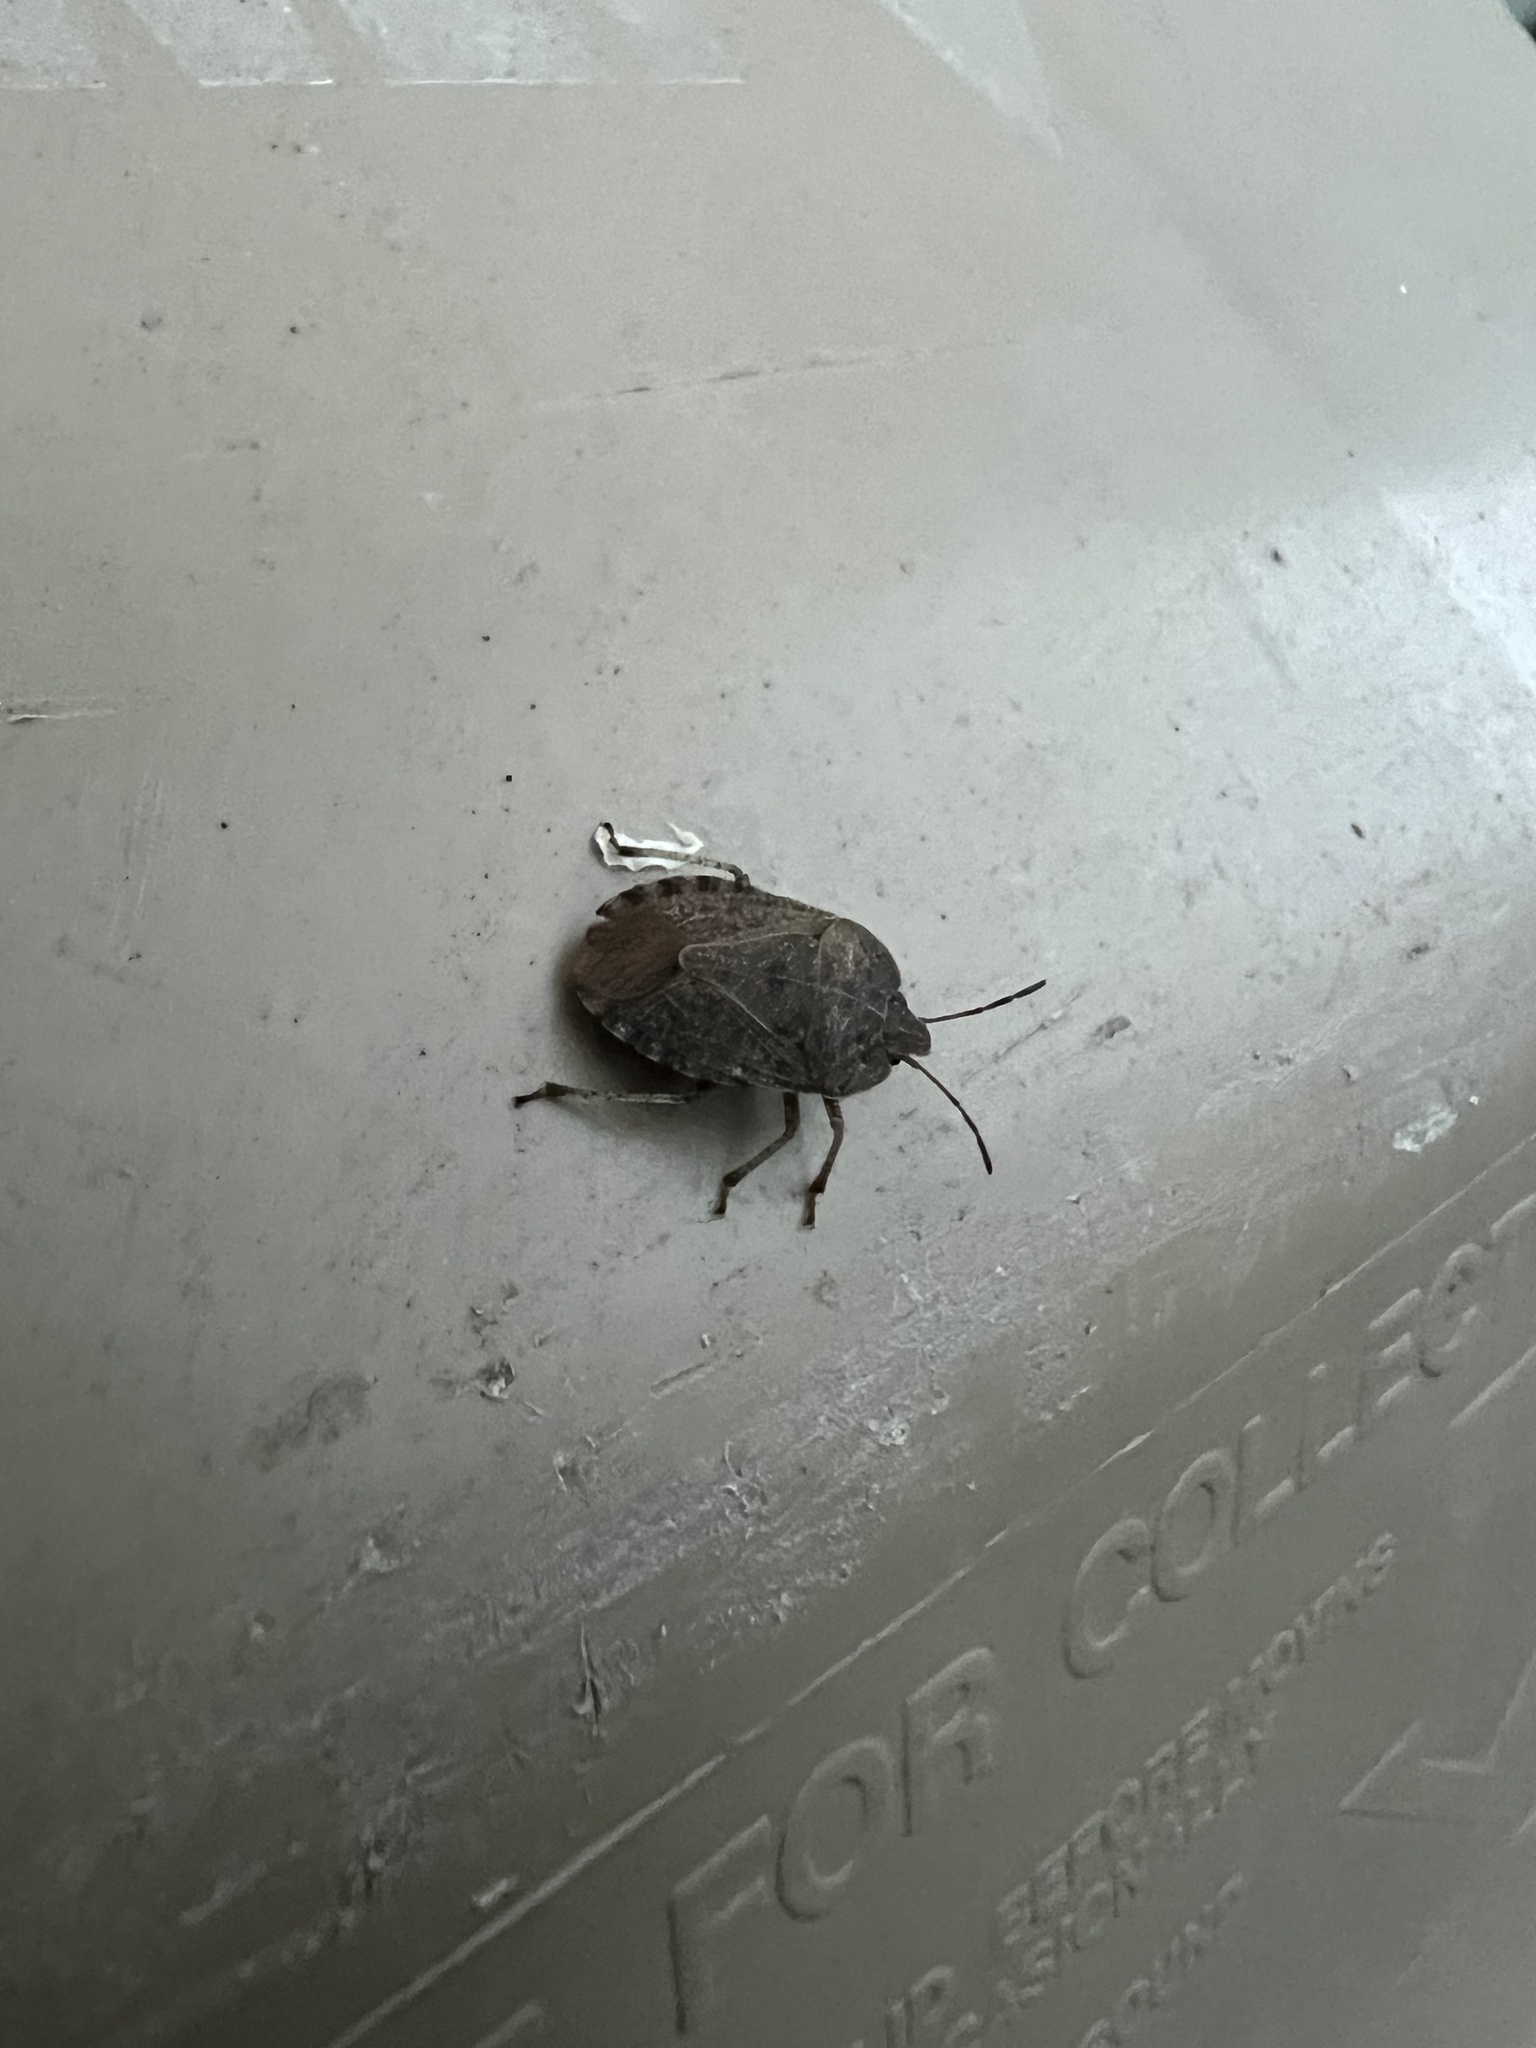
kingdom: Animalia
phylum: Arthropoda
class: Insecta
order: Hemiptera
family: Pentatomidae
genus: Menecles
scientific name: Menecles insertus
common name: Elf shoe stink bug
